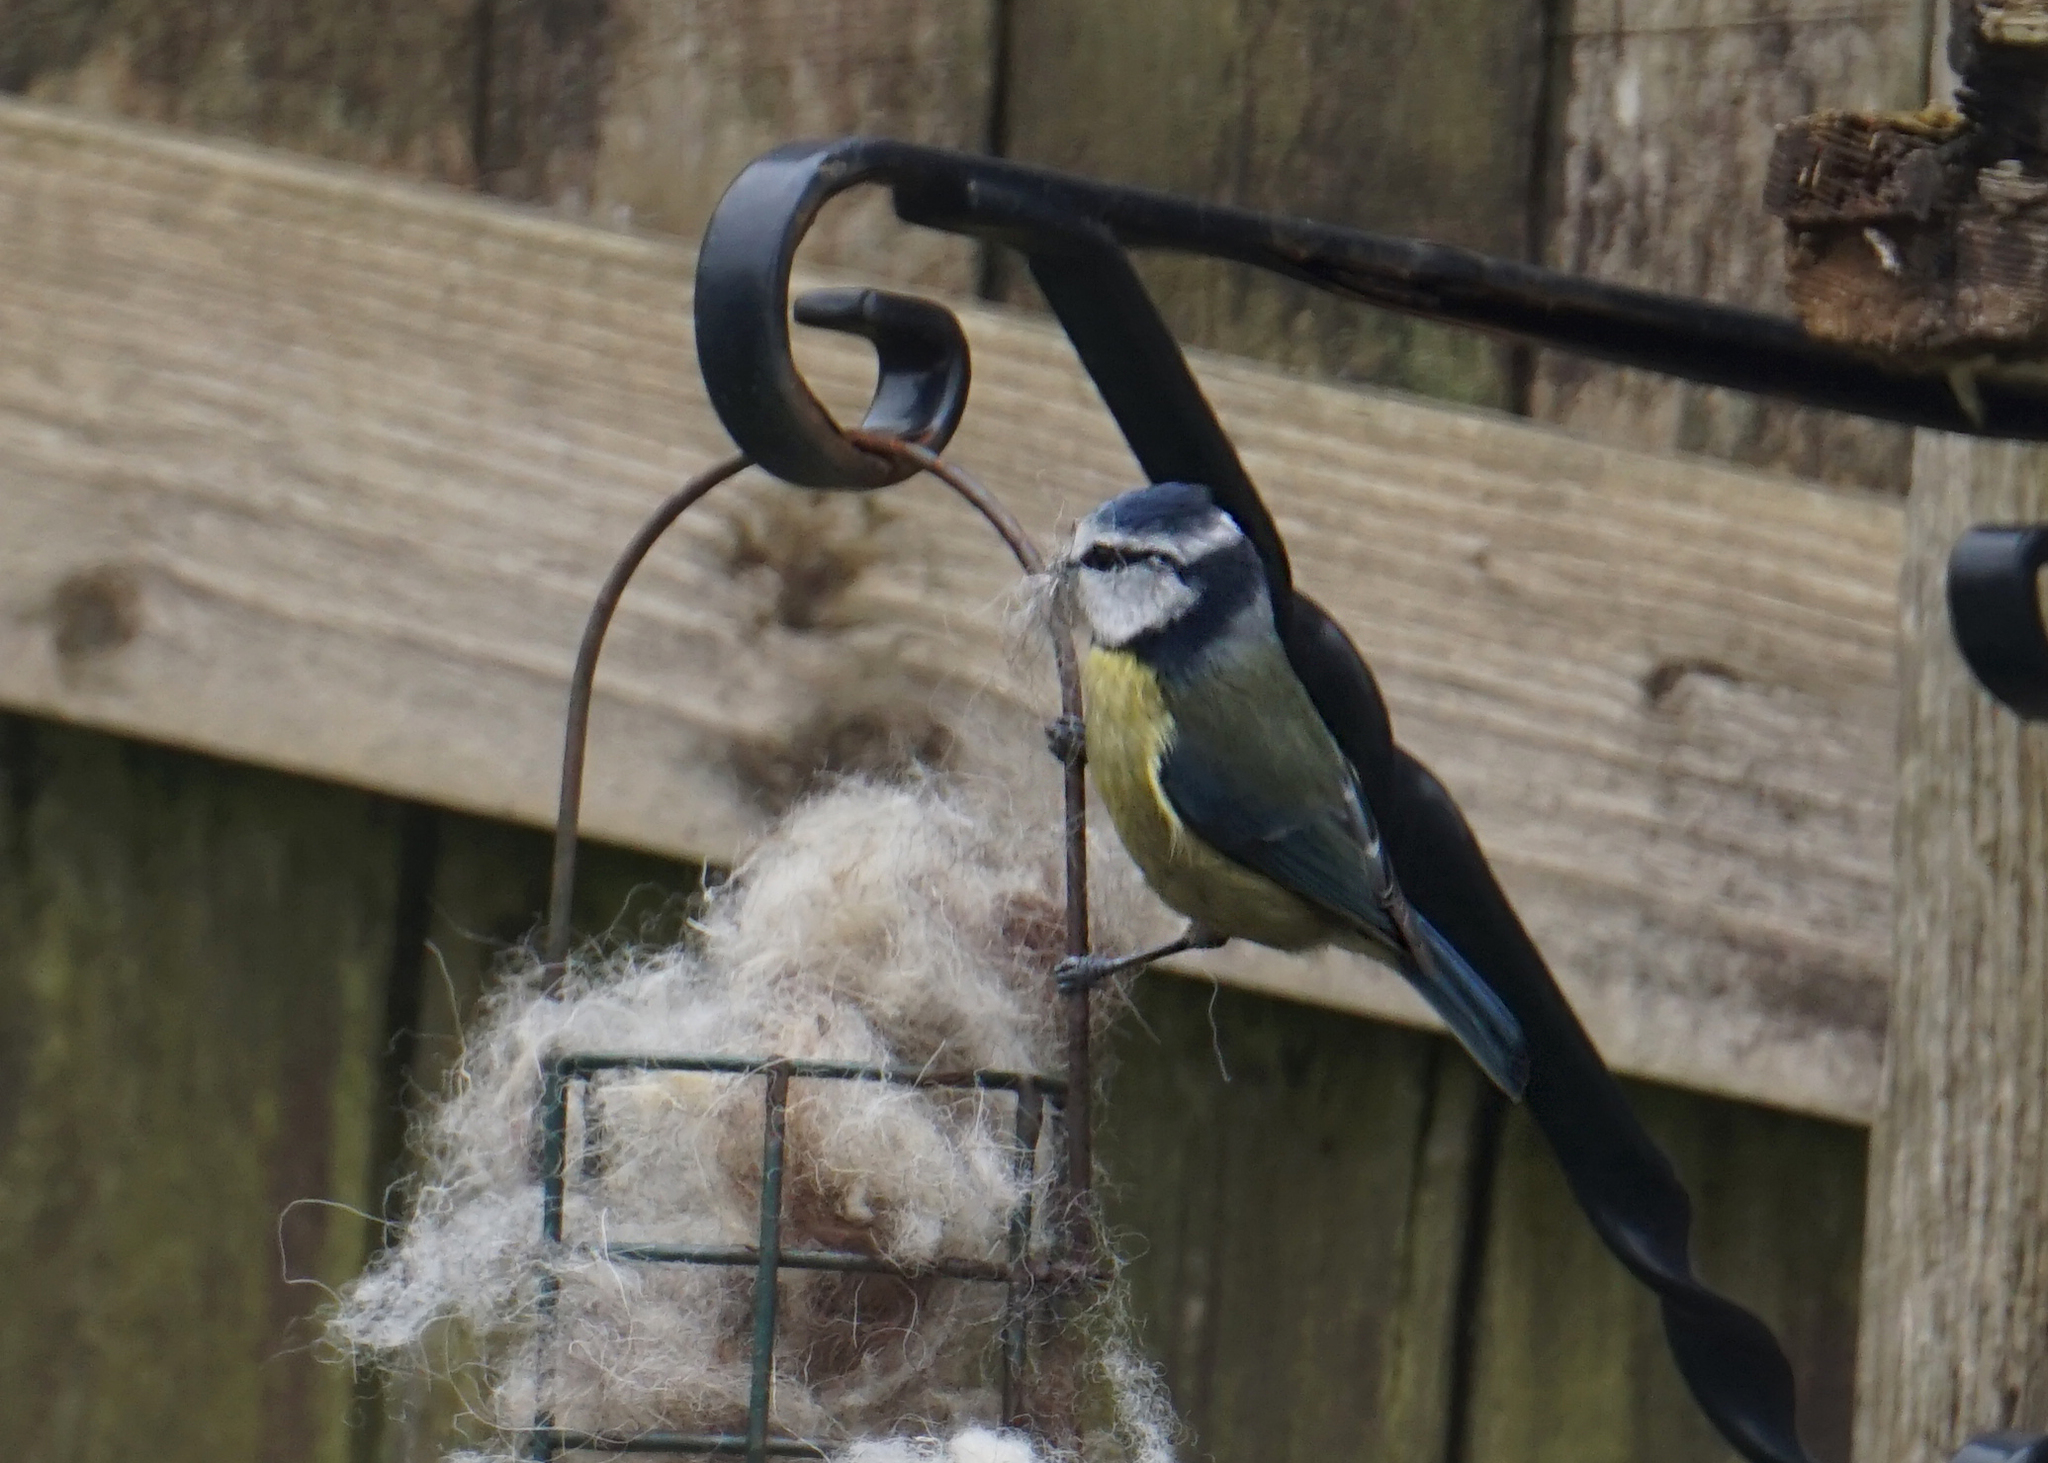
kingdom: Animalia
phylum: Chordata
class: Aves
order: Passeriformes
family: Paridae
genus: Cyanistes
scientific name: Cyanistes caeruleus
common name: Eurasian blue tit
